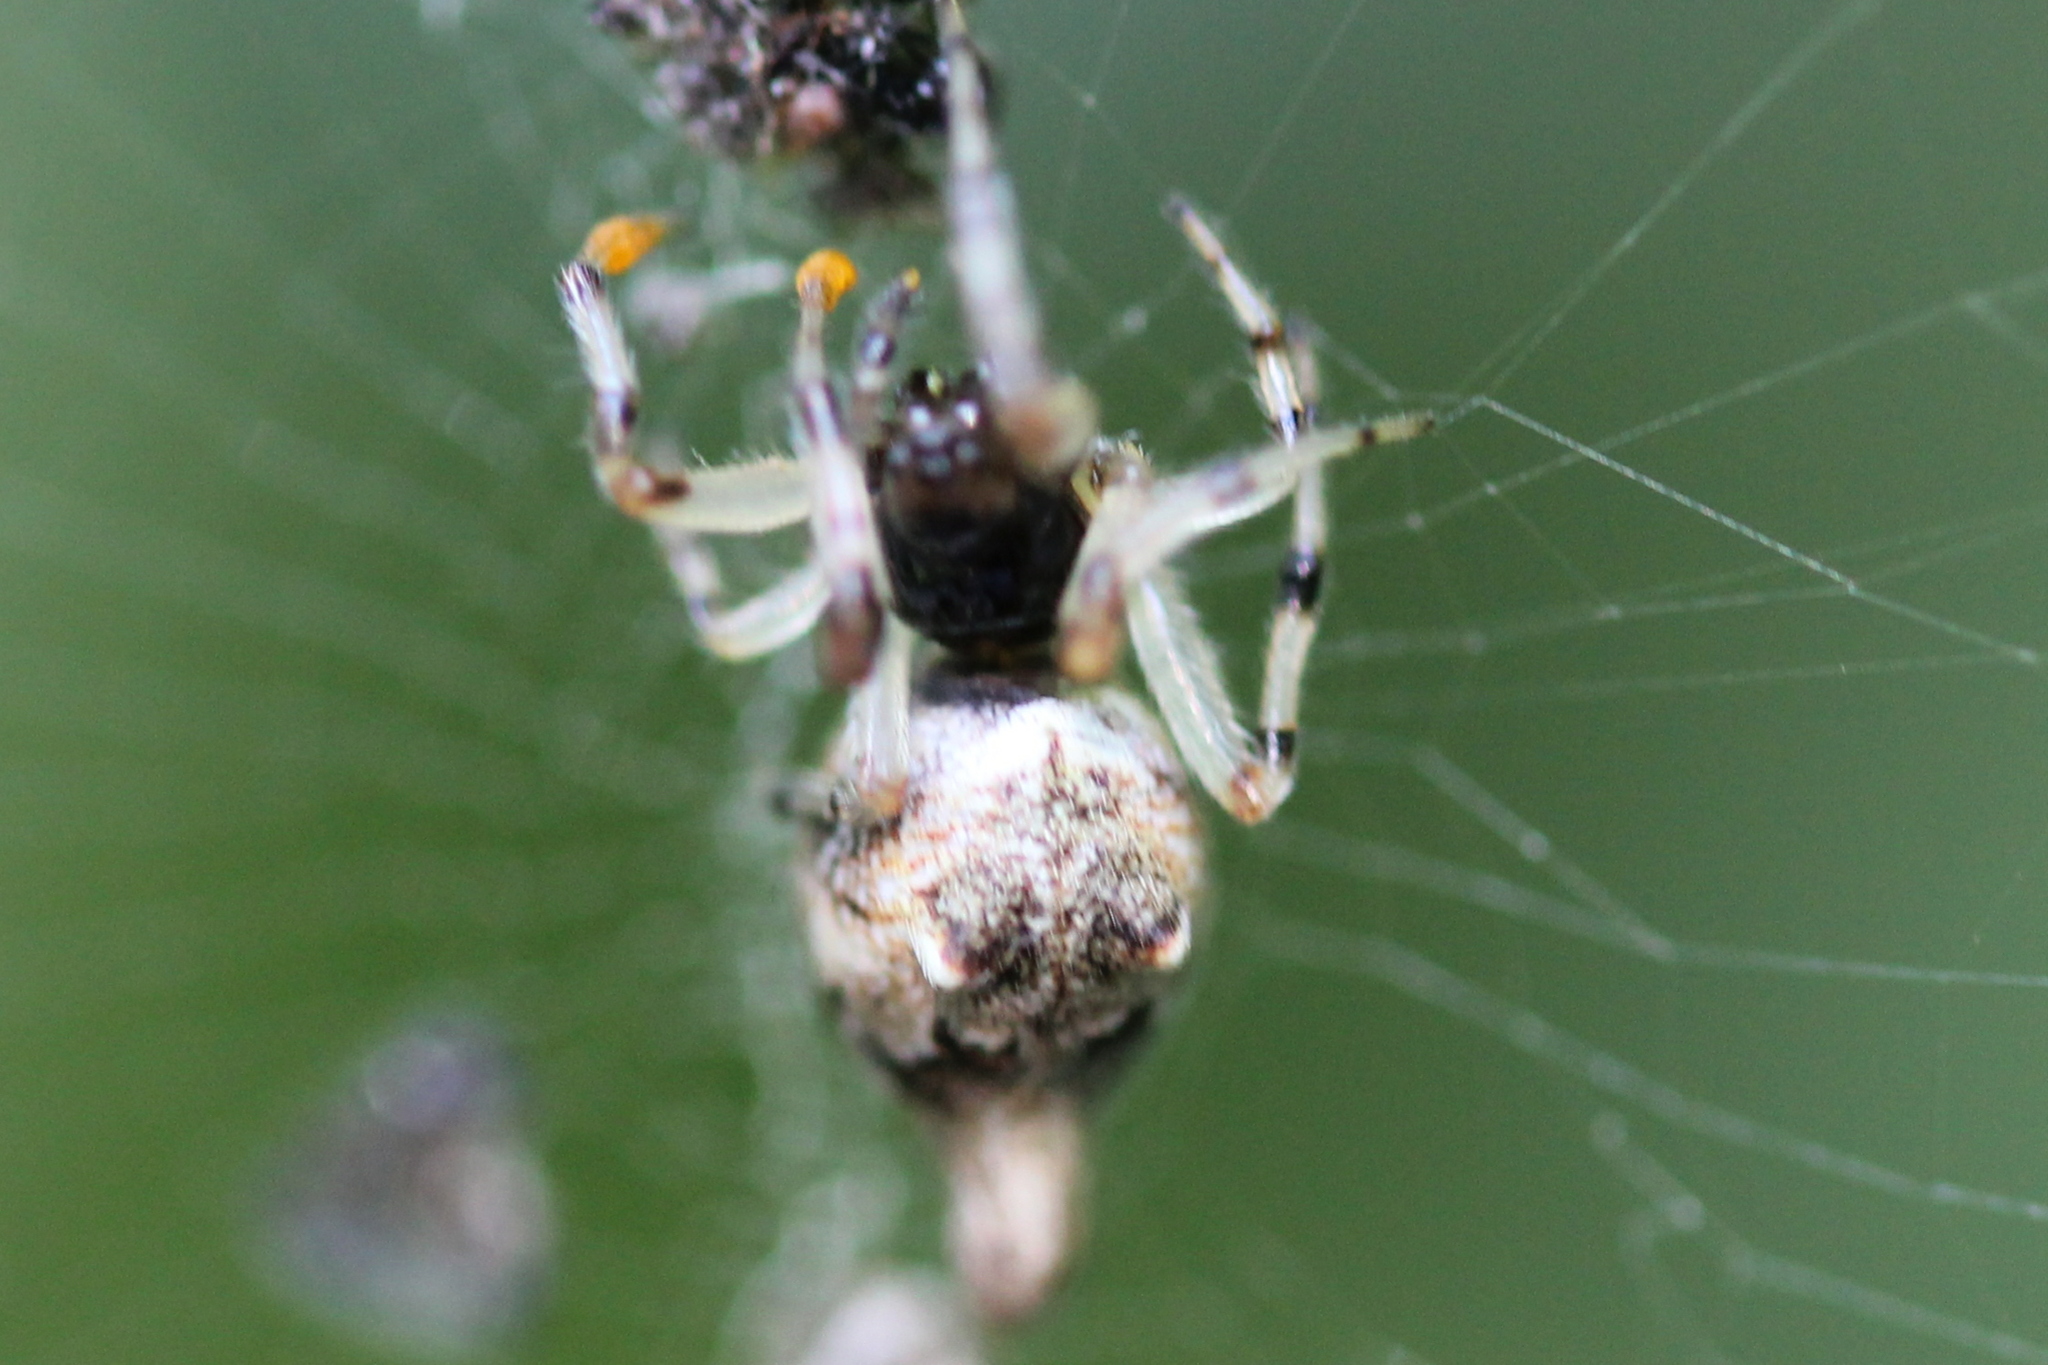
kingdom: Animalia
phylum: Arthropoda
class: Arachnida
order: Araneae
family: Araneidae
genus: Cyclosa
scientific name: Cyclosa turbinata
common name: Orb weavers
